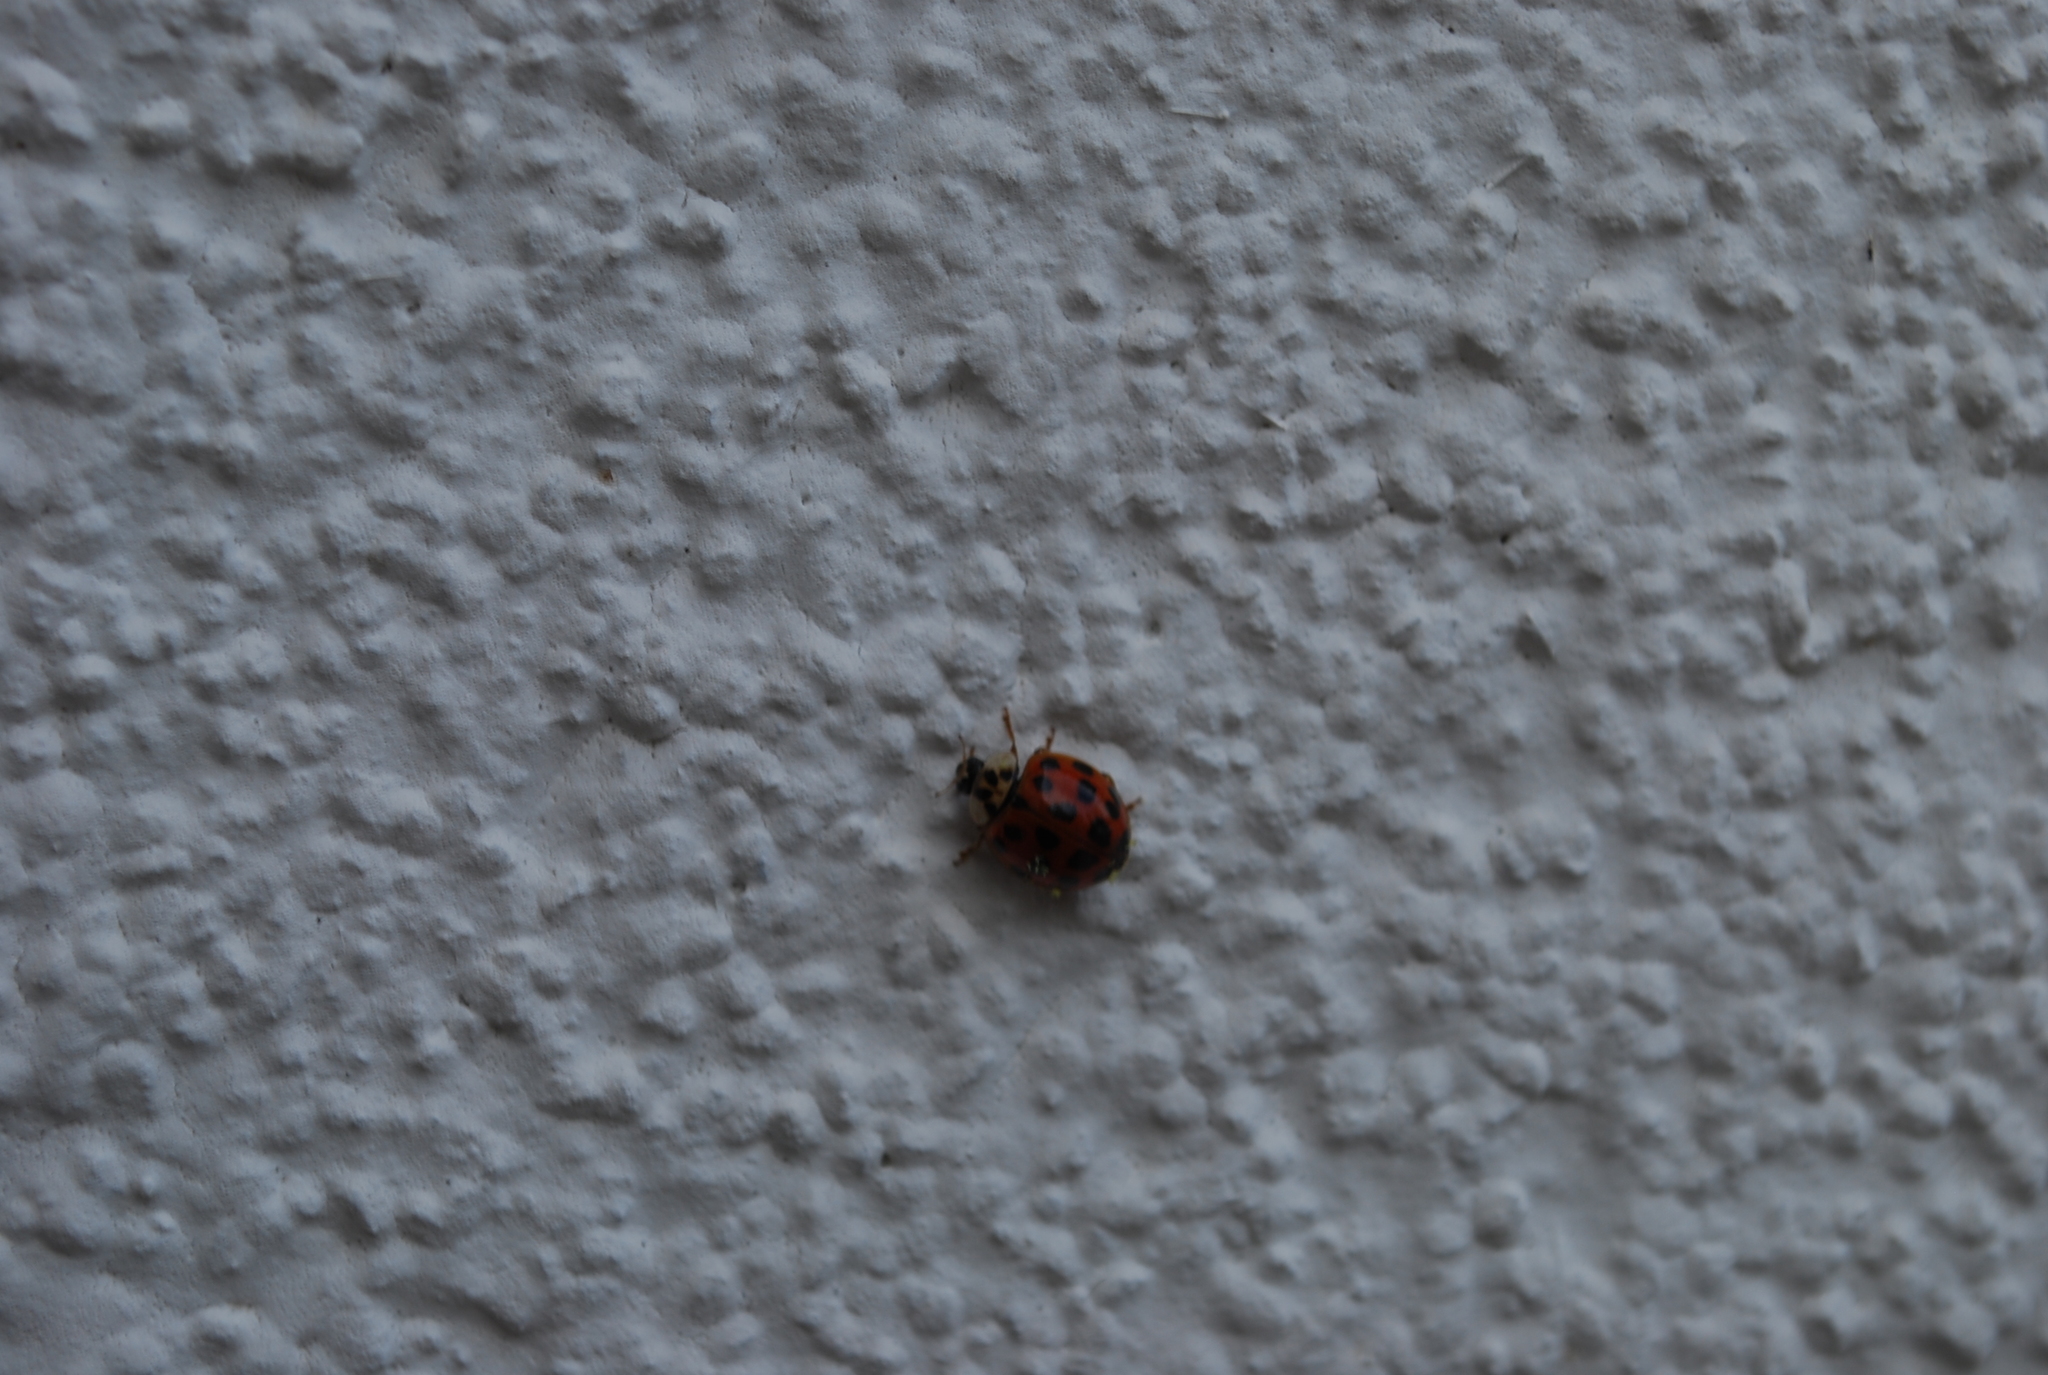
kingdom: Animalia
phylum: Arthropoda
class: Insecta
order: Coleoptera
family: Coccinellidae
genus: Harmonia
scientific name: Harmonia axyridis
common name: Harlequin ladybird
